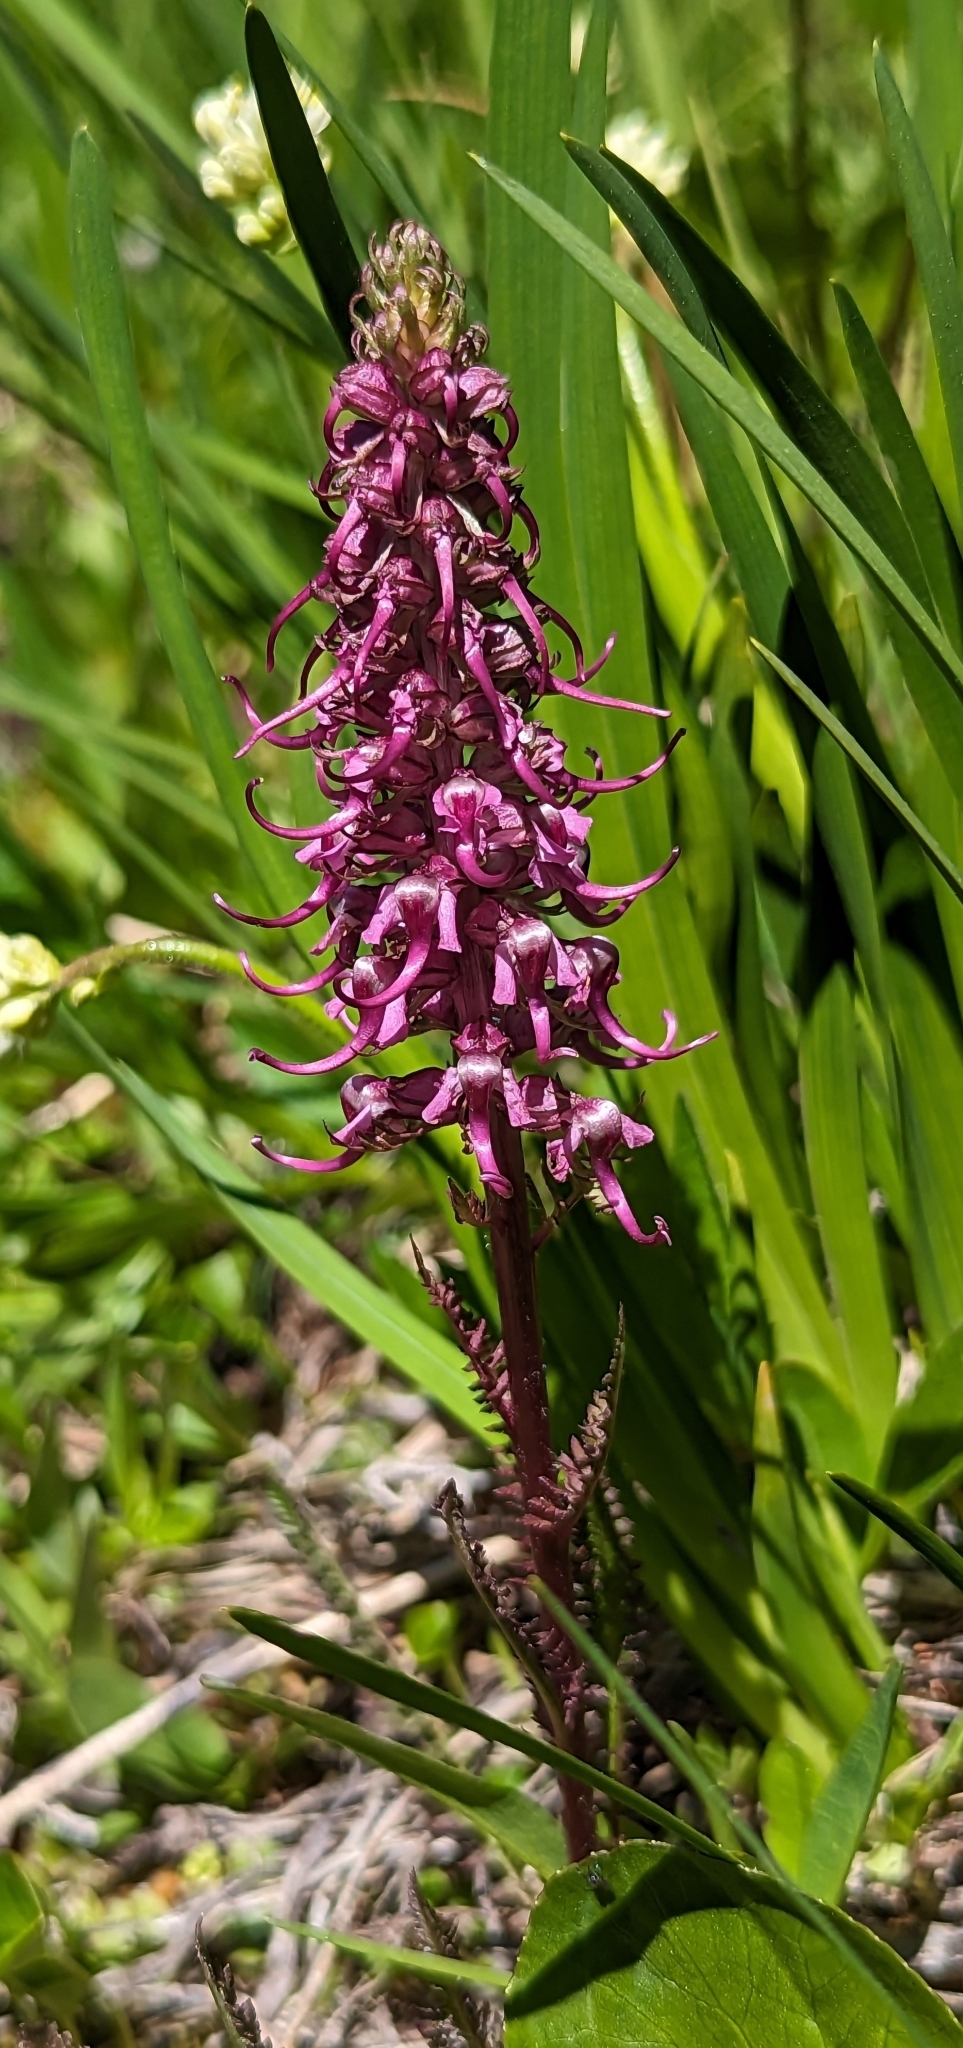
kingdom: Plantae
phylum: Tracheophyta
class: Magnoliopsida
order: Lamiales
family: Orobanchaceae
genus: Pedicularis
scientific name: Pedicularis groenlandica
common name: Elephant's-head
